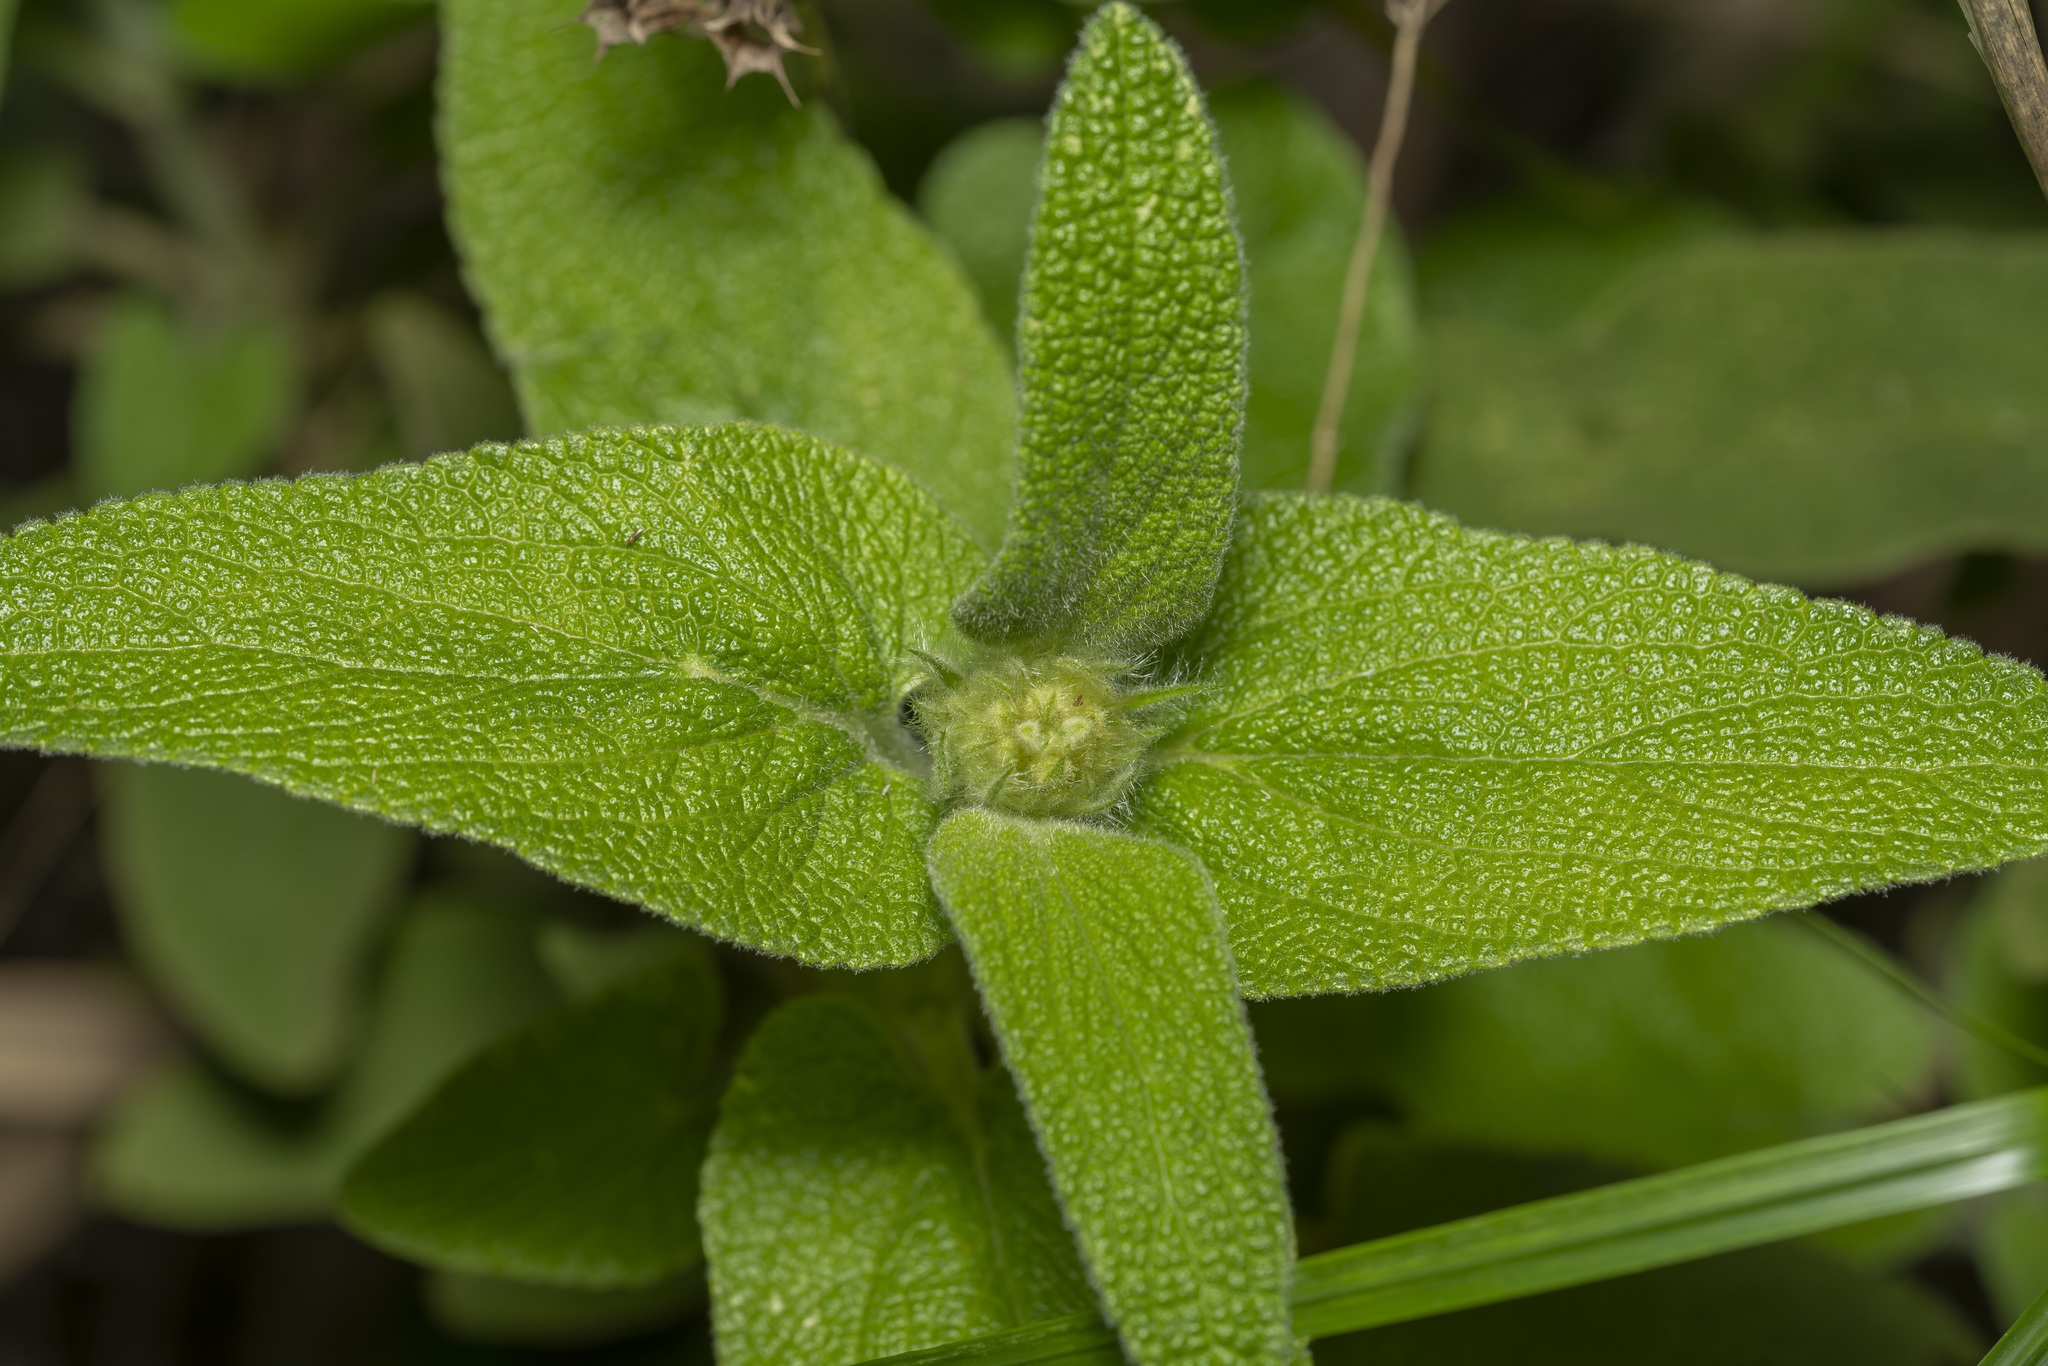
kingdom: Plantae
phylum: Tracheophyta
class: Magnoliopsida
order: Lamiales
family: Lamiaceae
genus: Phlomis
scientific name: Phlomis bourgaei
